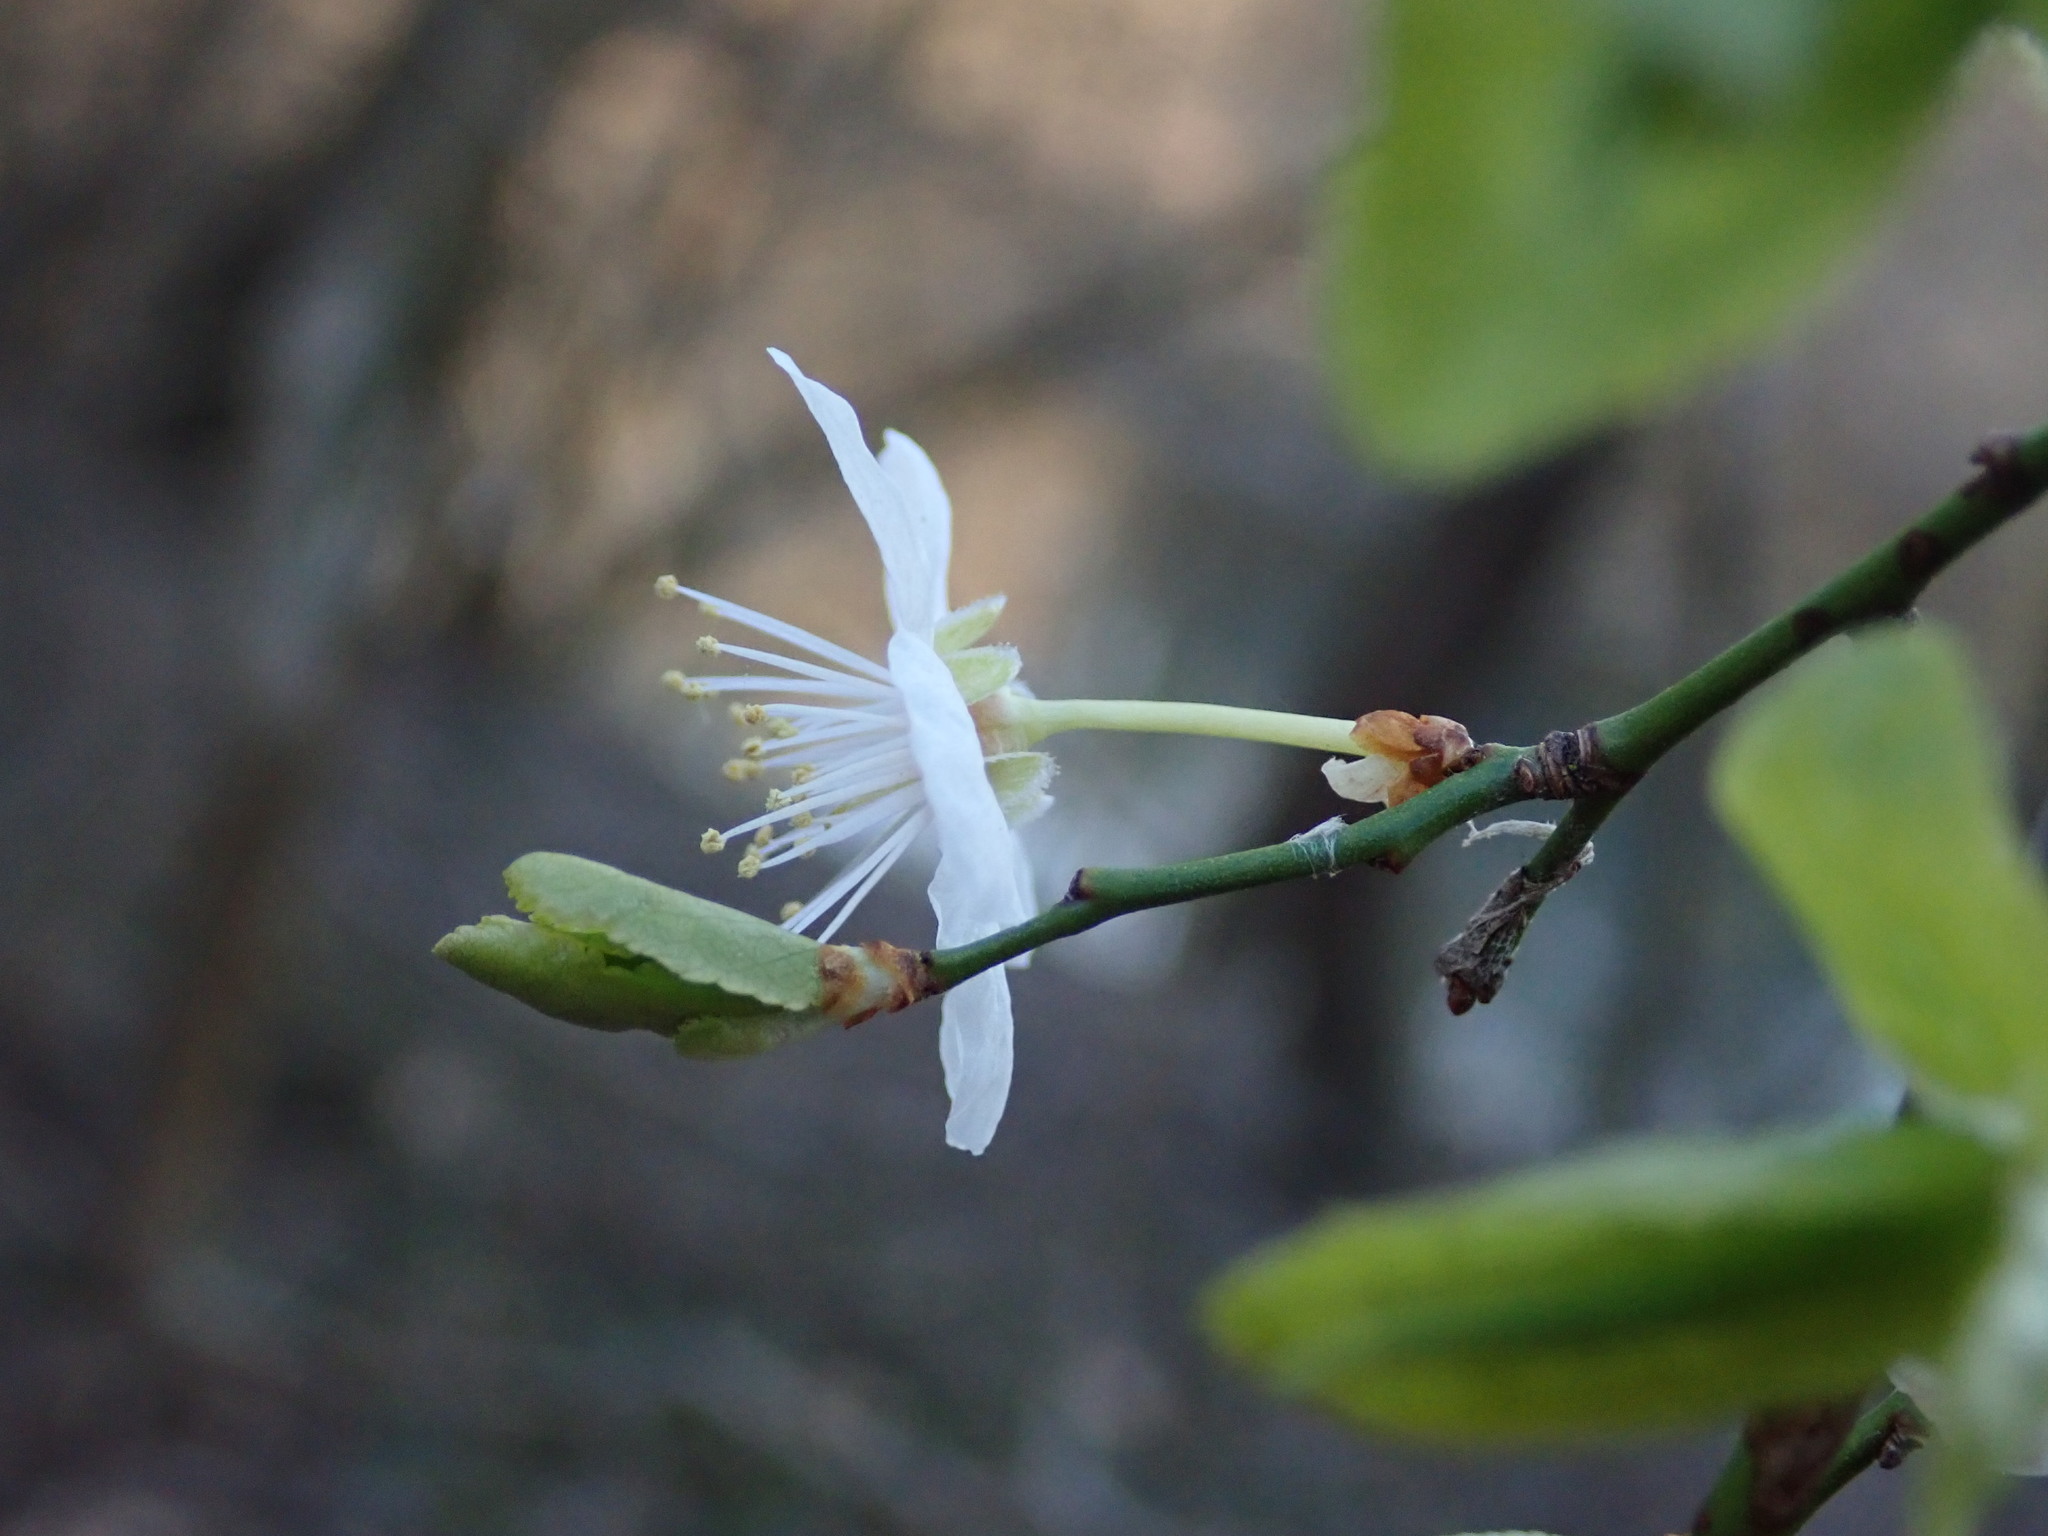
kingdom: Plantae
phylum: Tracheophyta
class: Magnoliopsida
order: Rosales
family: Rosaceae
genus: Prunus
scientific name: Prunus cerasifera
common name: Cherry plum
